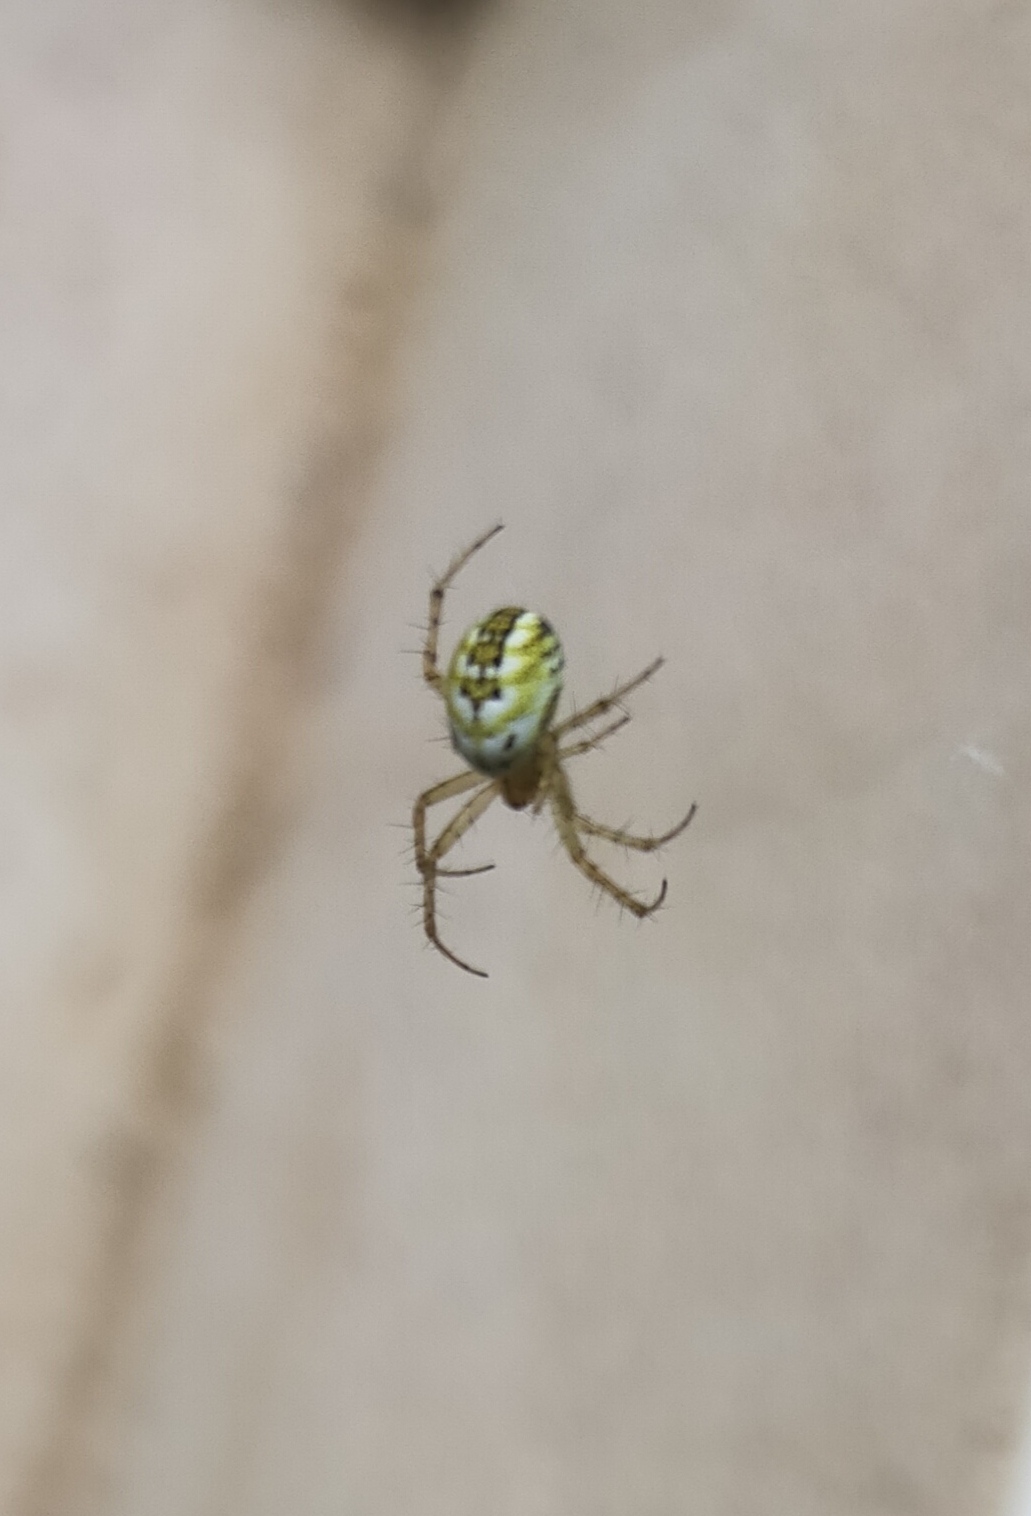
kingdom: Animalia
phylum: Arthropoda
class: Arachnida
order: Araneae
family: Araneidae
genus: Mangora
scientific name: Mangora acalypha
